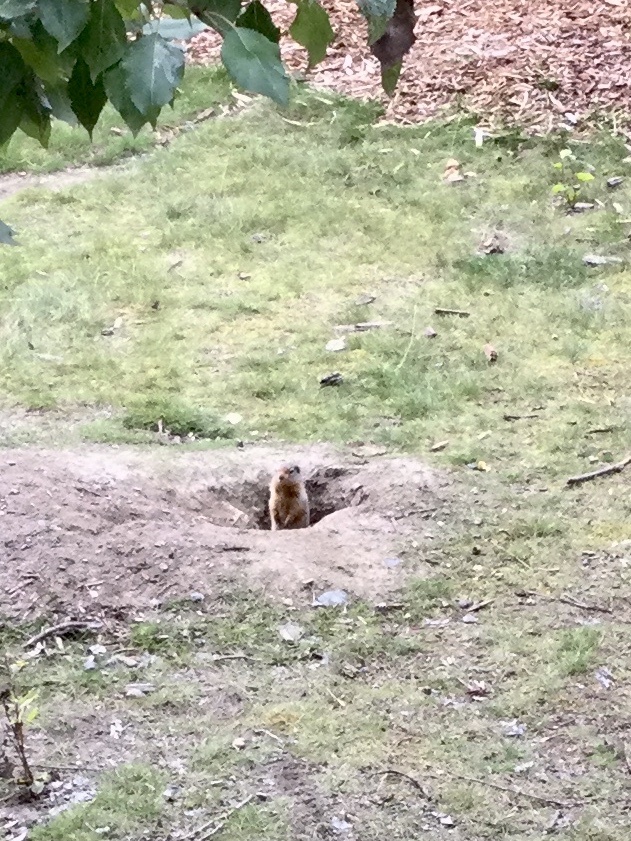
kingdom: Animalia
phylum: Chordata
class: Mammalia
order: Rodentia
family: Sciuridae
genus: Urocitellus
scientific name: Urocitellus columbianus
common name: Columbian ground squirrel
